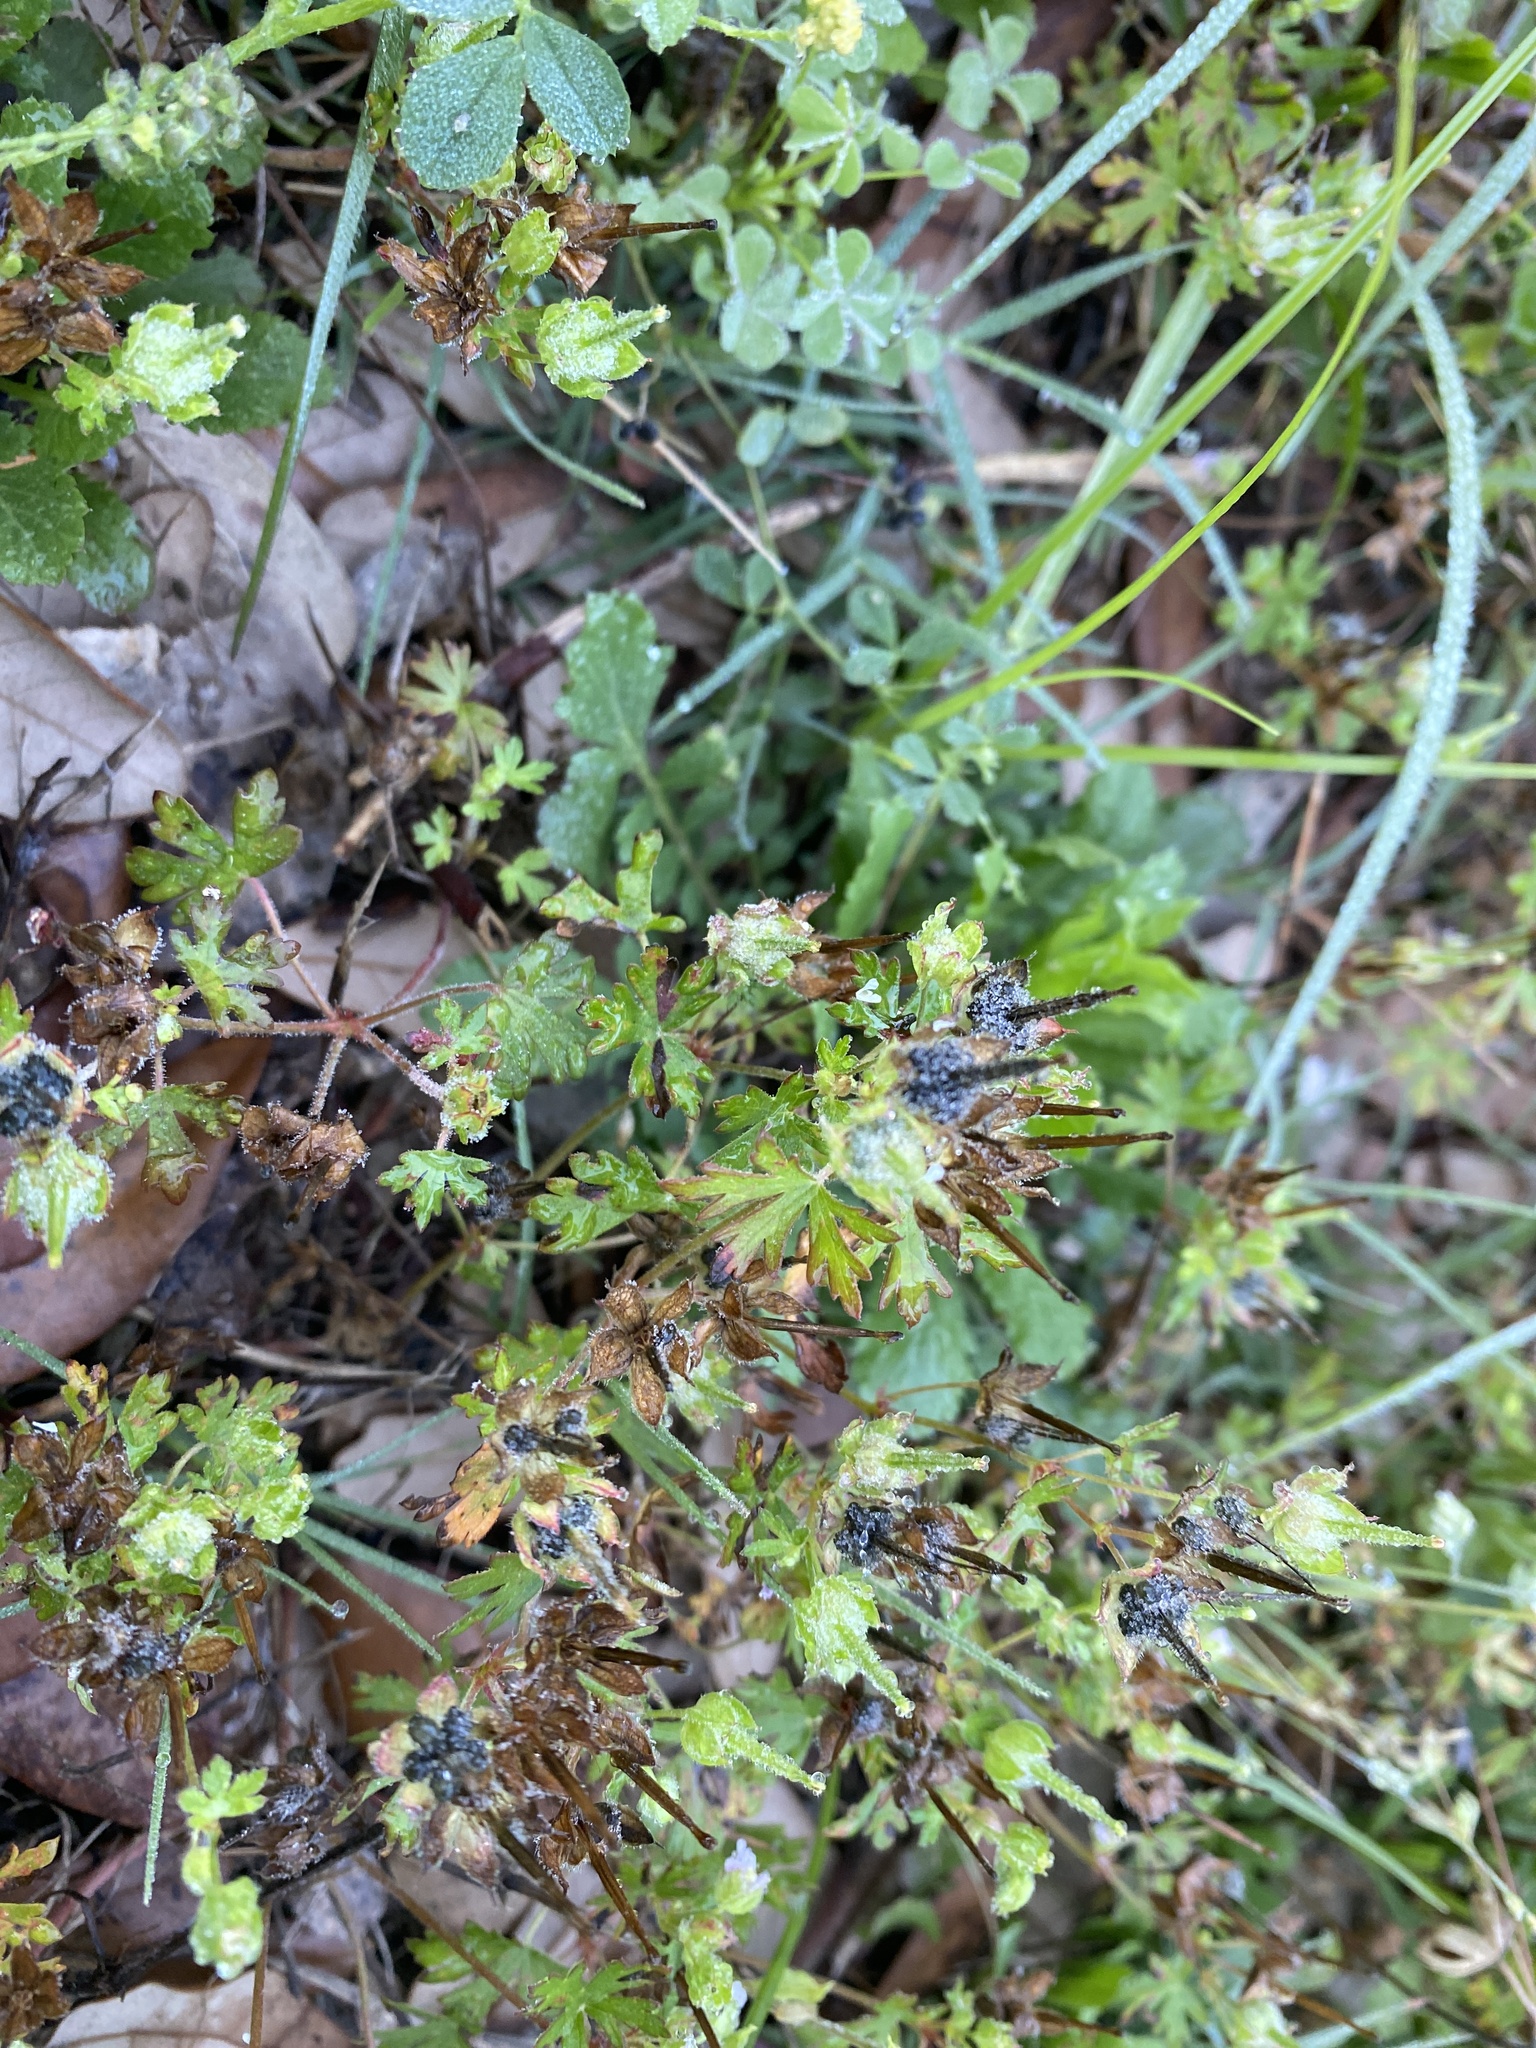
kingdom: Plantae
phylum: Tracheophyta
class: Magnoliopsida
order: Geraniales
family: Geraniaceae
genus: Geranium
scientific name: Geranium carolinianum
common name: Carolina crane's-bill
